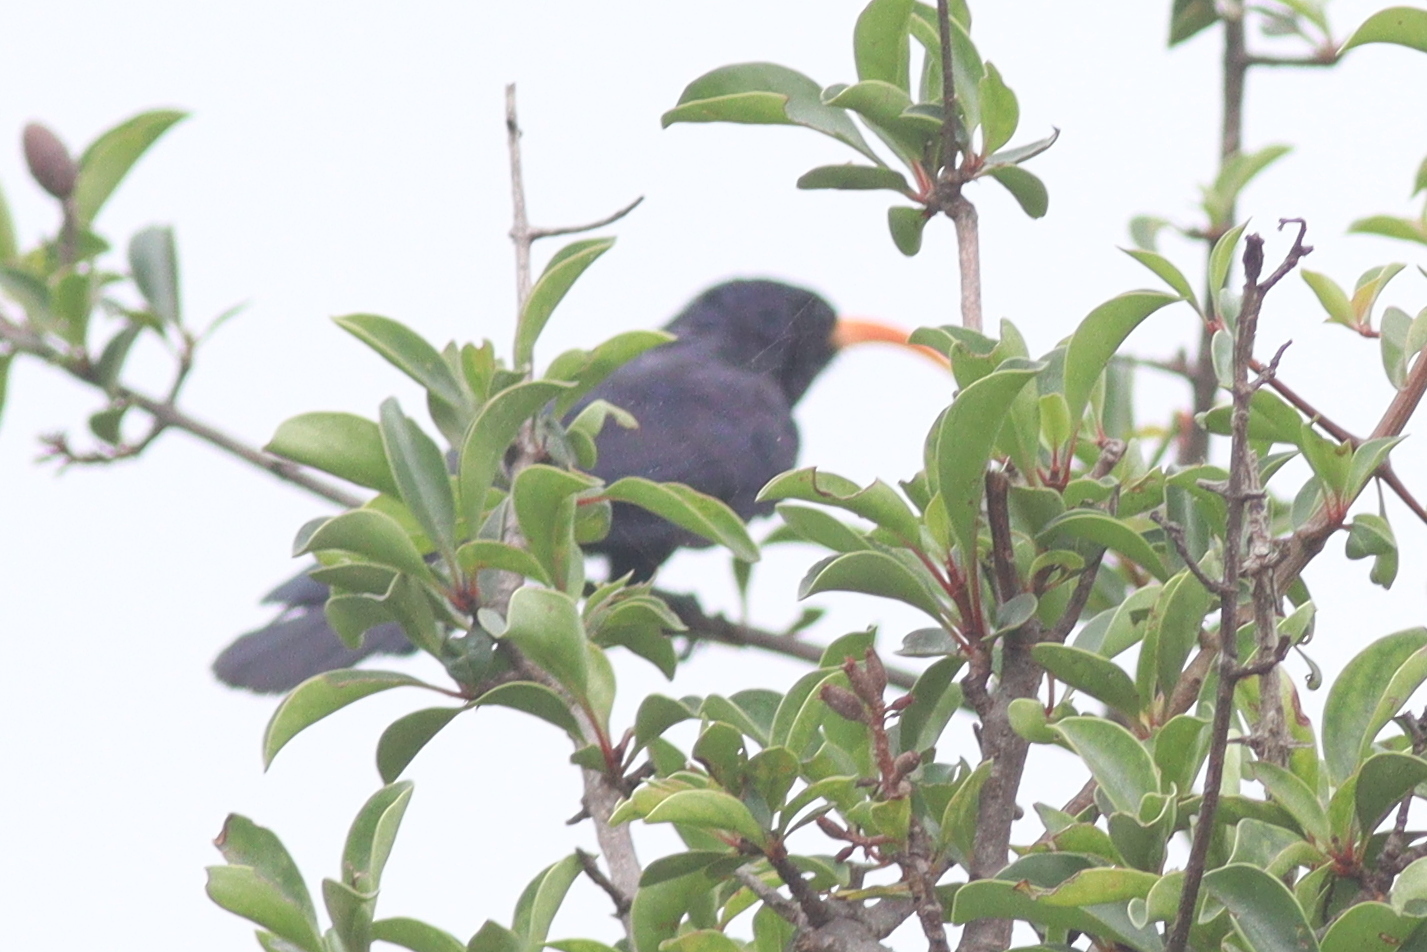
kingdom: Animalia
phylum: Chordata
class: Aves
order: Bucerotiformes
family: Phoeniculidae
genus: Rhinopomastus
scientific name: Rhinopomastus minor
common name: Abyssinian scimitarbill
